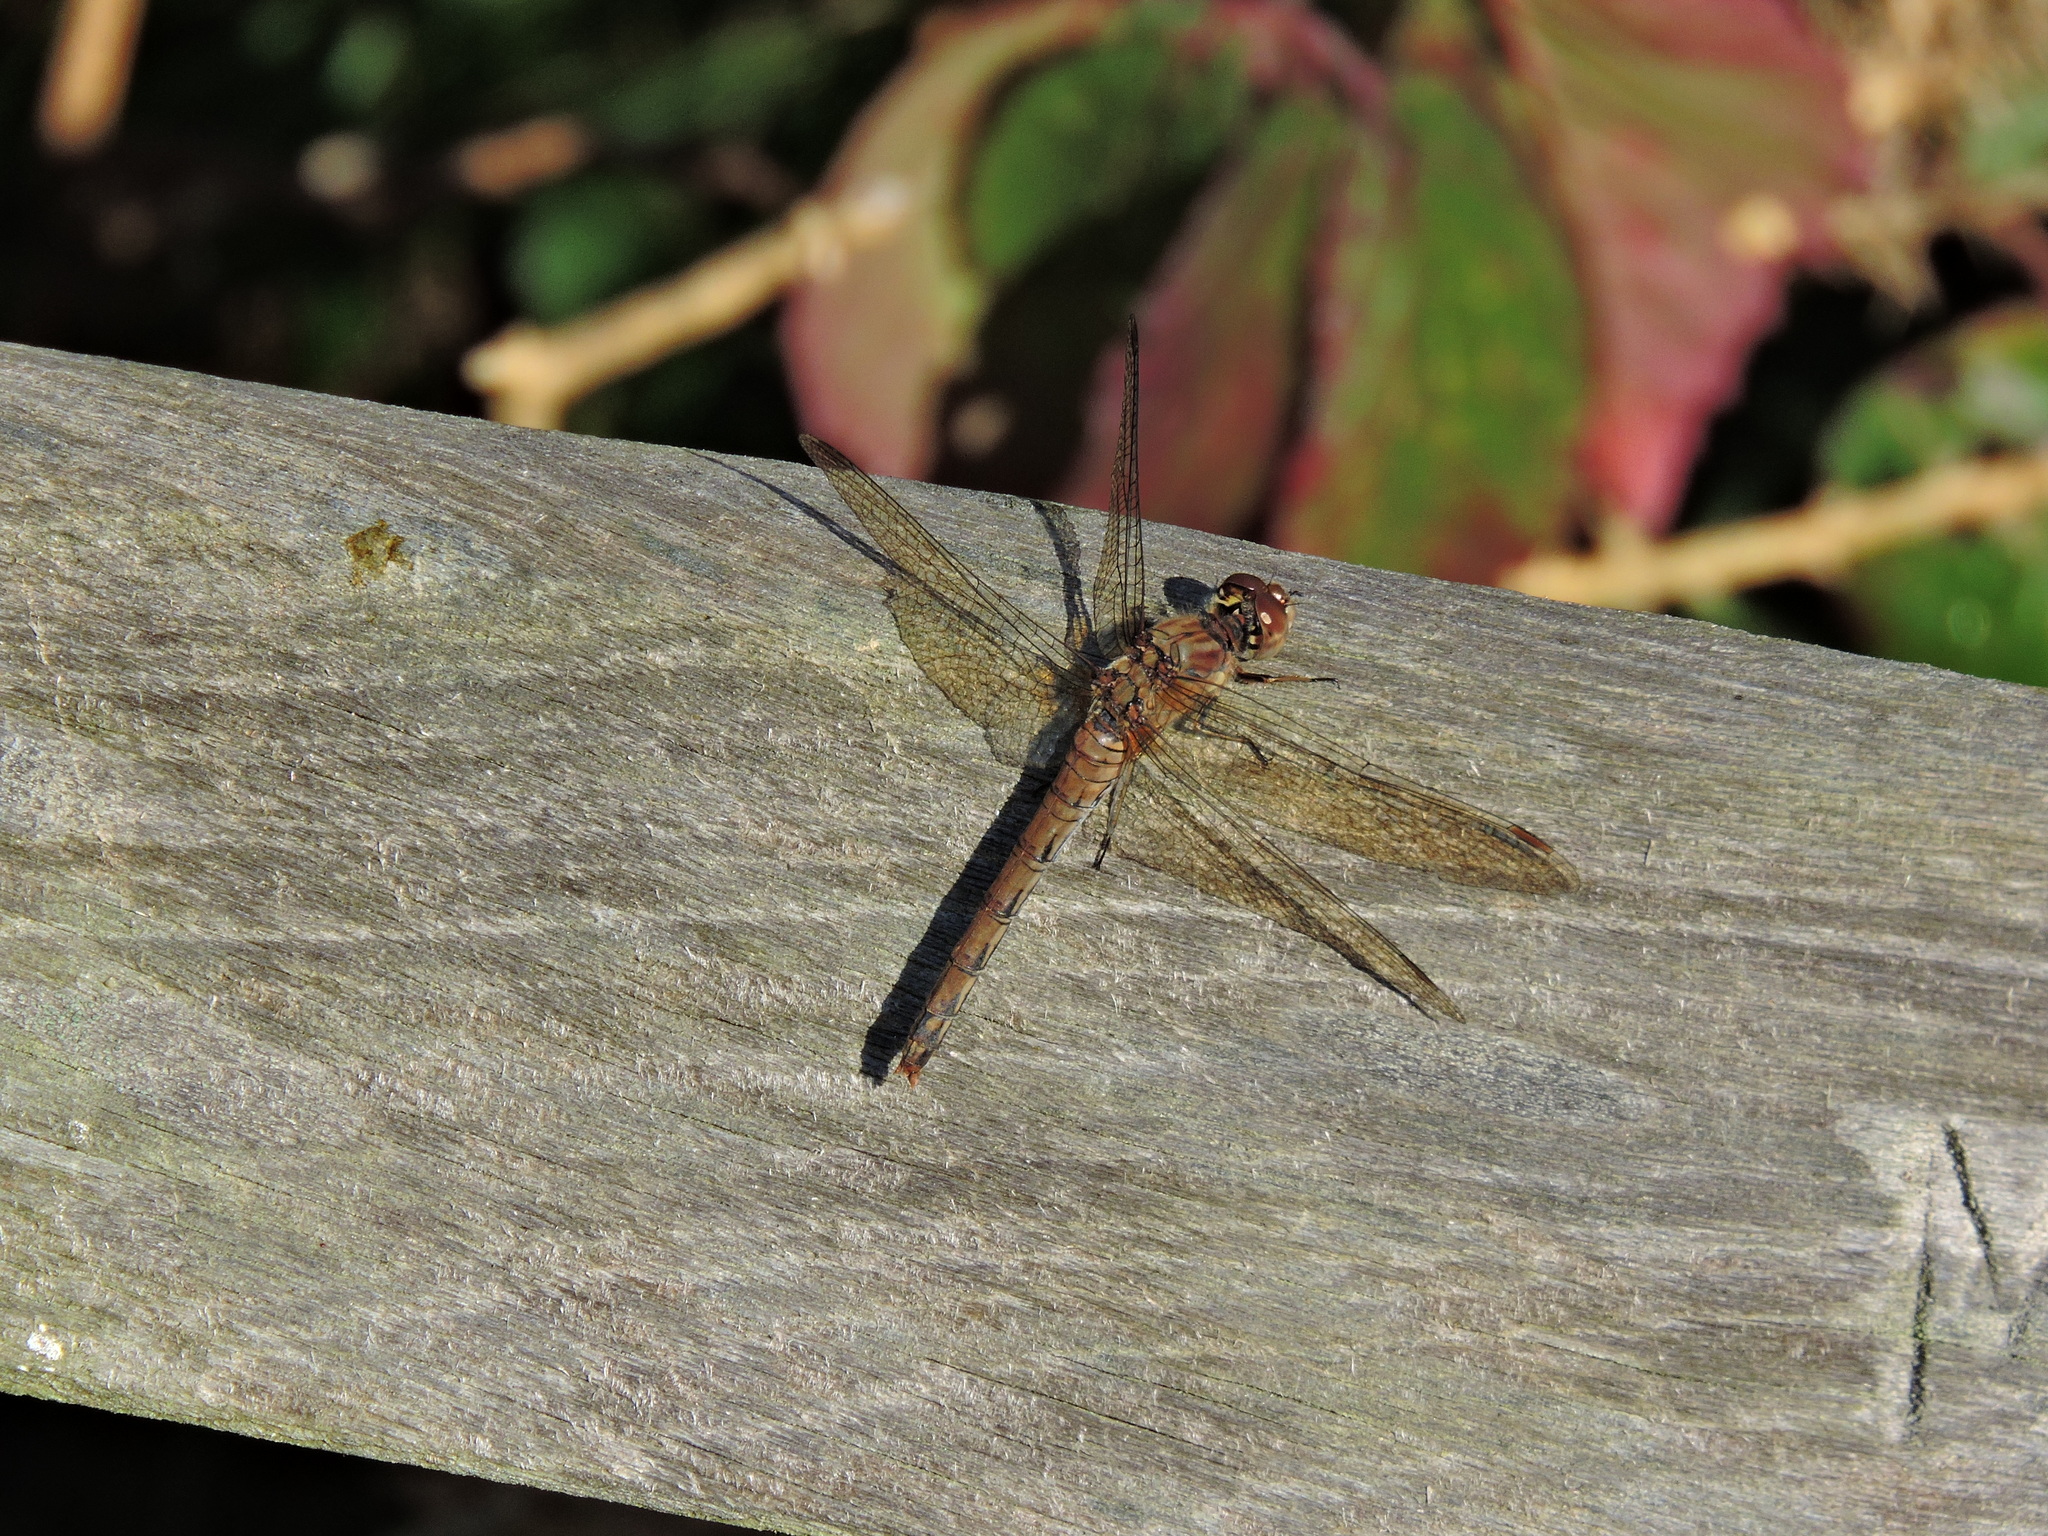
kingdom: Animalia
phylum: Arthropoda
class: Insecta
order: Odonata
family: Libellulidae
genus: Sympetrum
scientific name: Sympetrum striolatum
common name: Common darter
